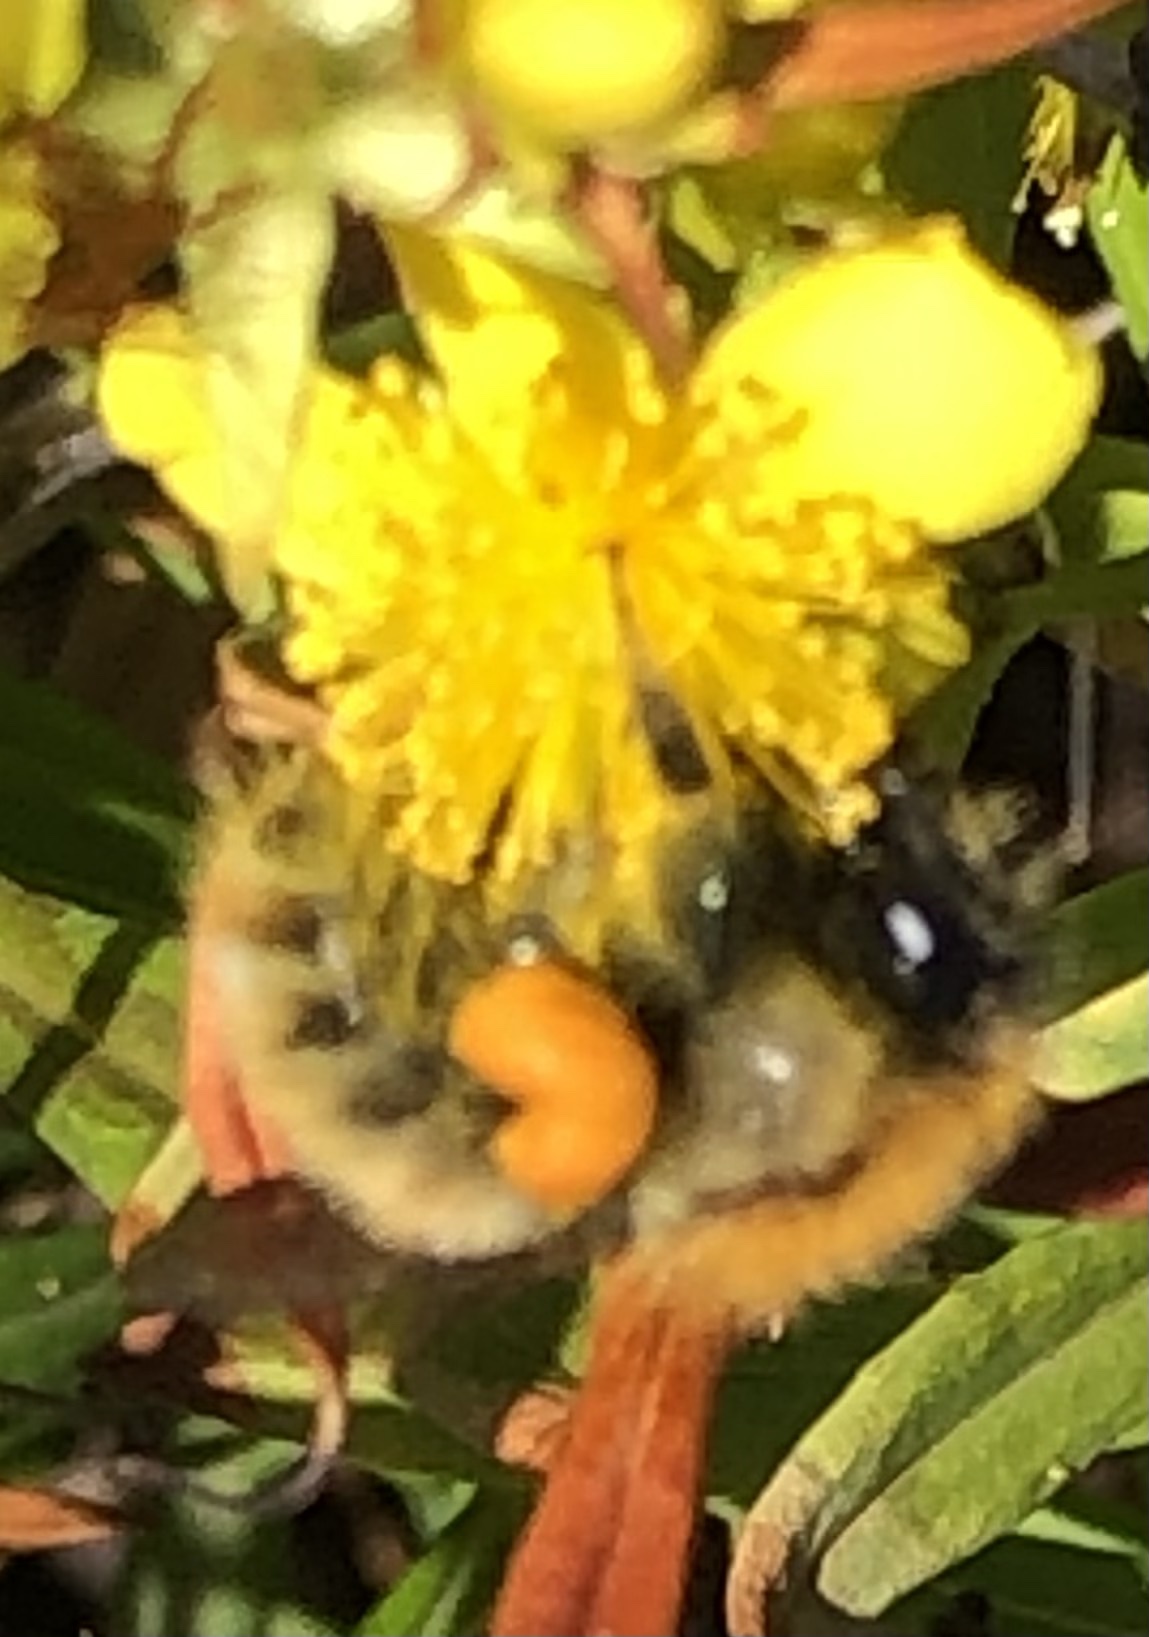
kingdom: Animalia
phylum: Arthropoda
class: Insecta
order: Hymenoptera
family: Apidae
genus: Bombus
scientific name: Bombus pascuorum
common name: Common carder bee
